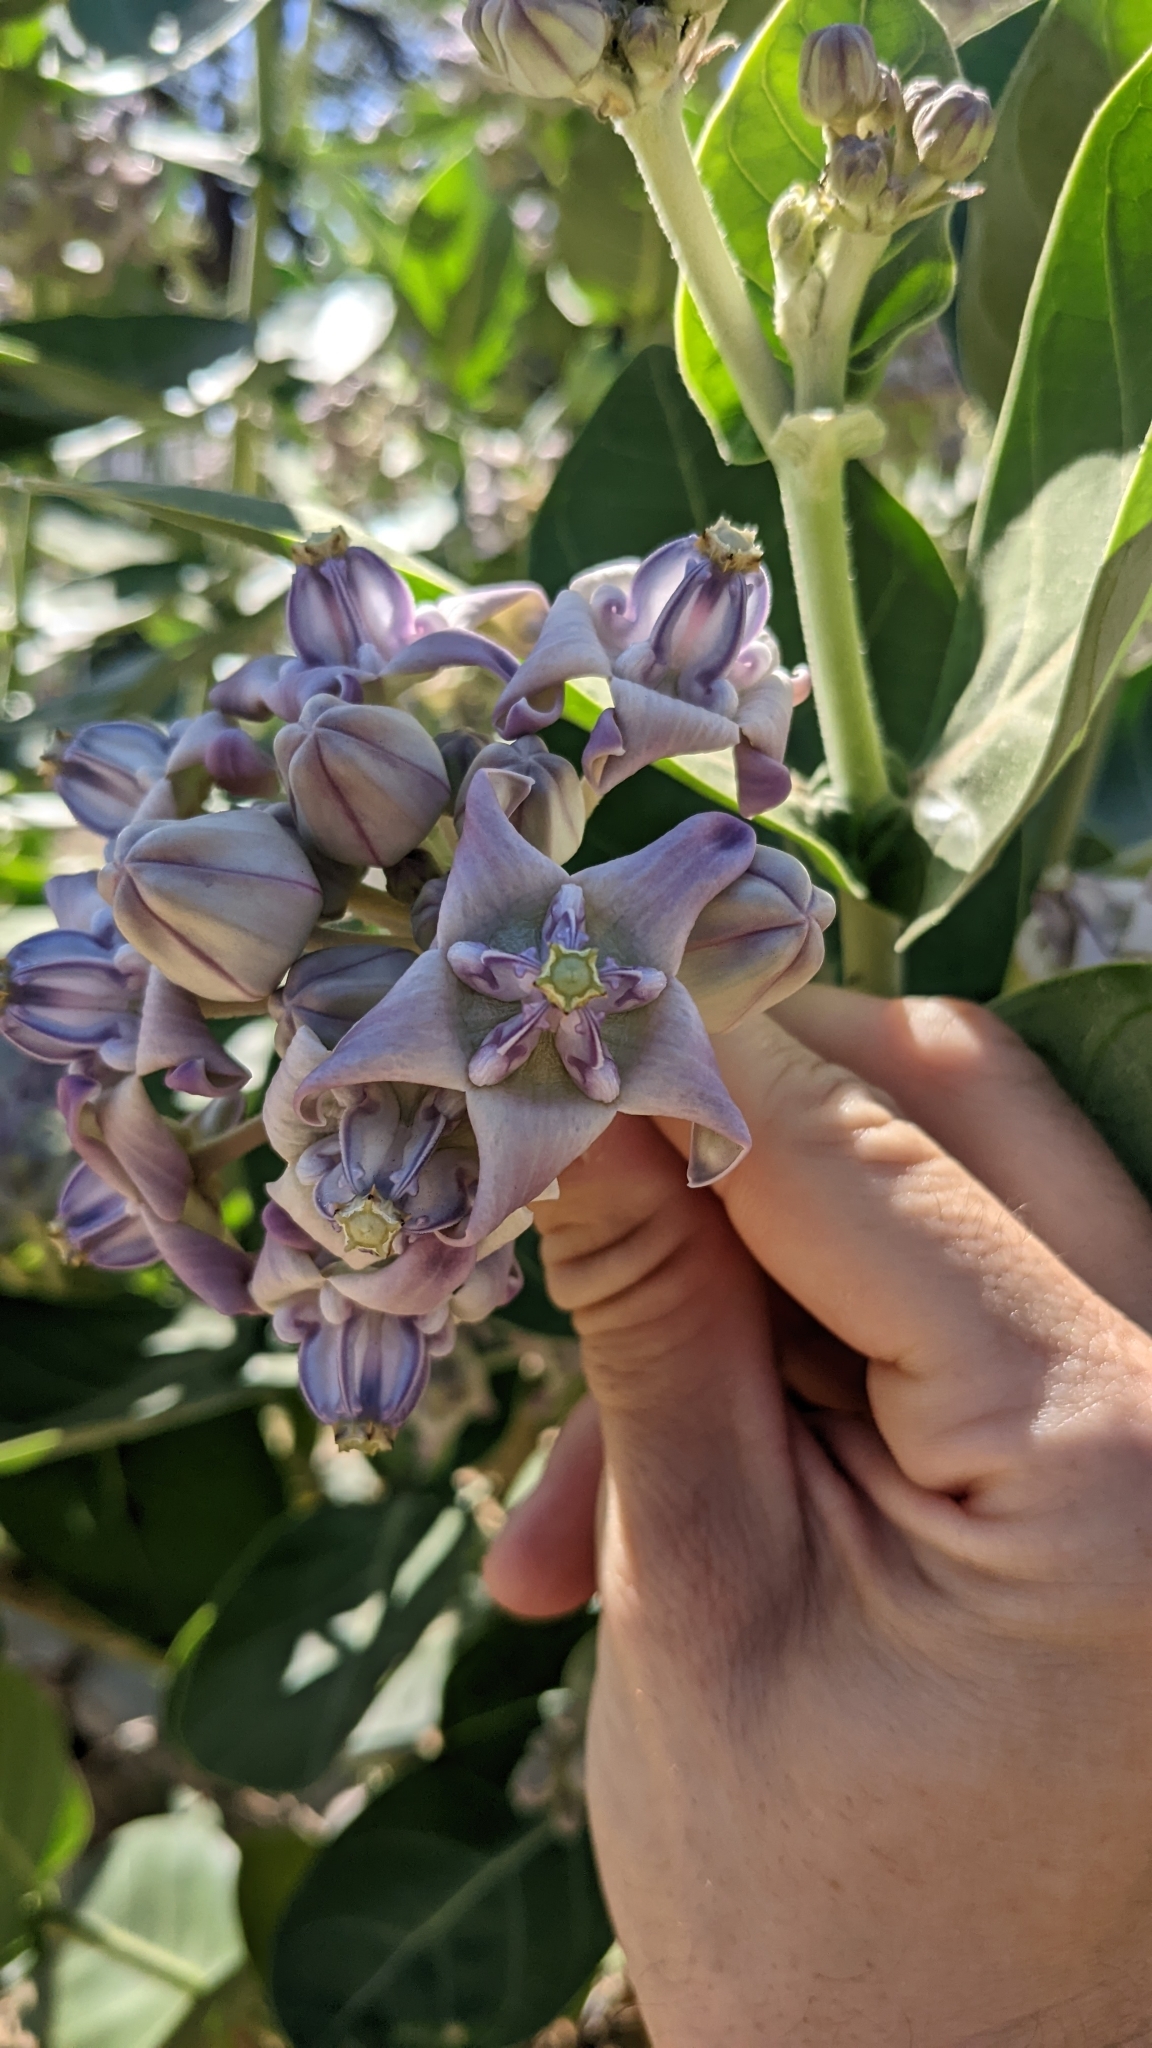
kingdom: Plantae
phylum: Tracheophyta
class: Magnoliopsida
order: Gentianales
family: Apocynaceae
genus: Calotropis
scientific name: Calotropis gigantea
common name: Crown flower
